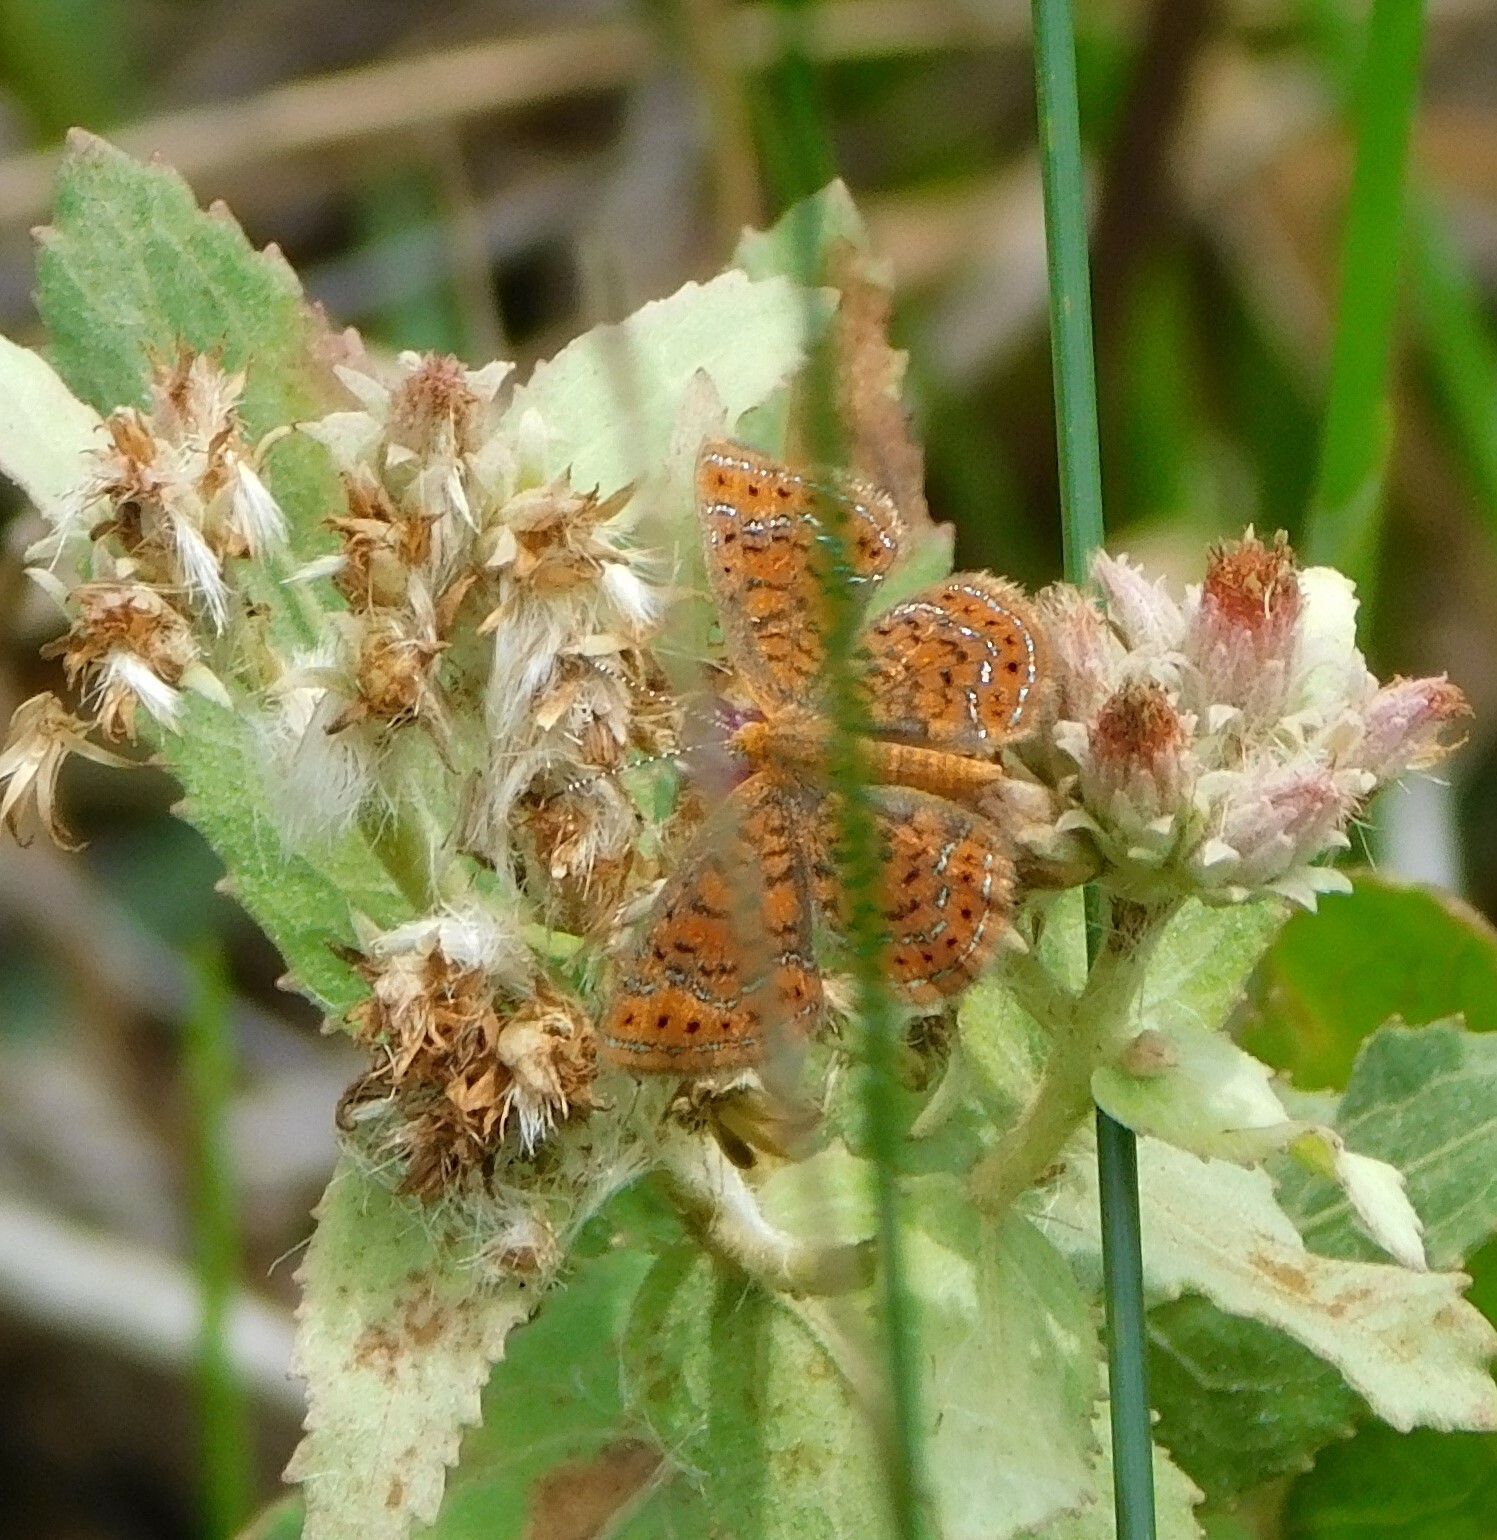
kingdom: Animalia
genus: Calephelis
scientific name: Calephelis virginiensis
